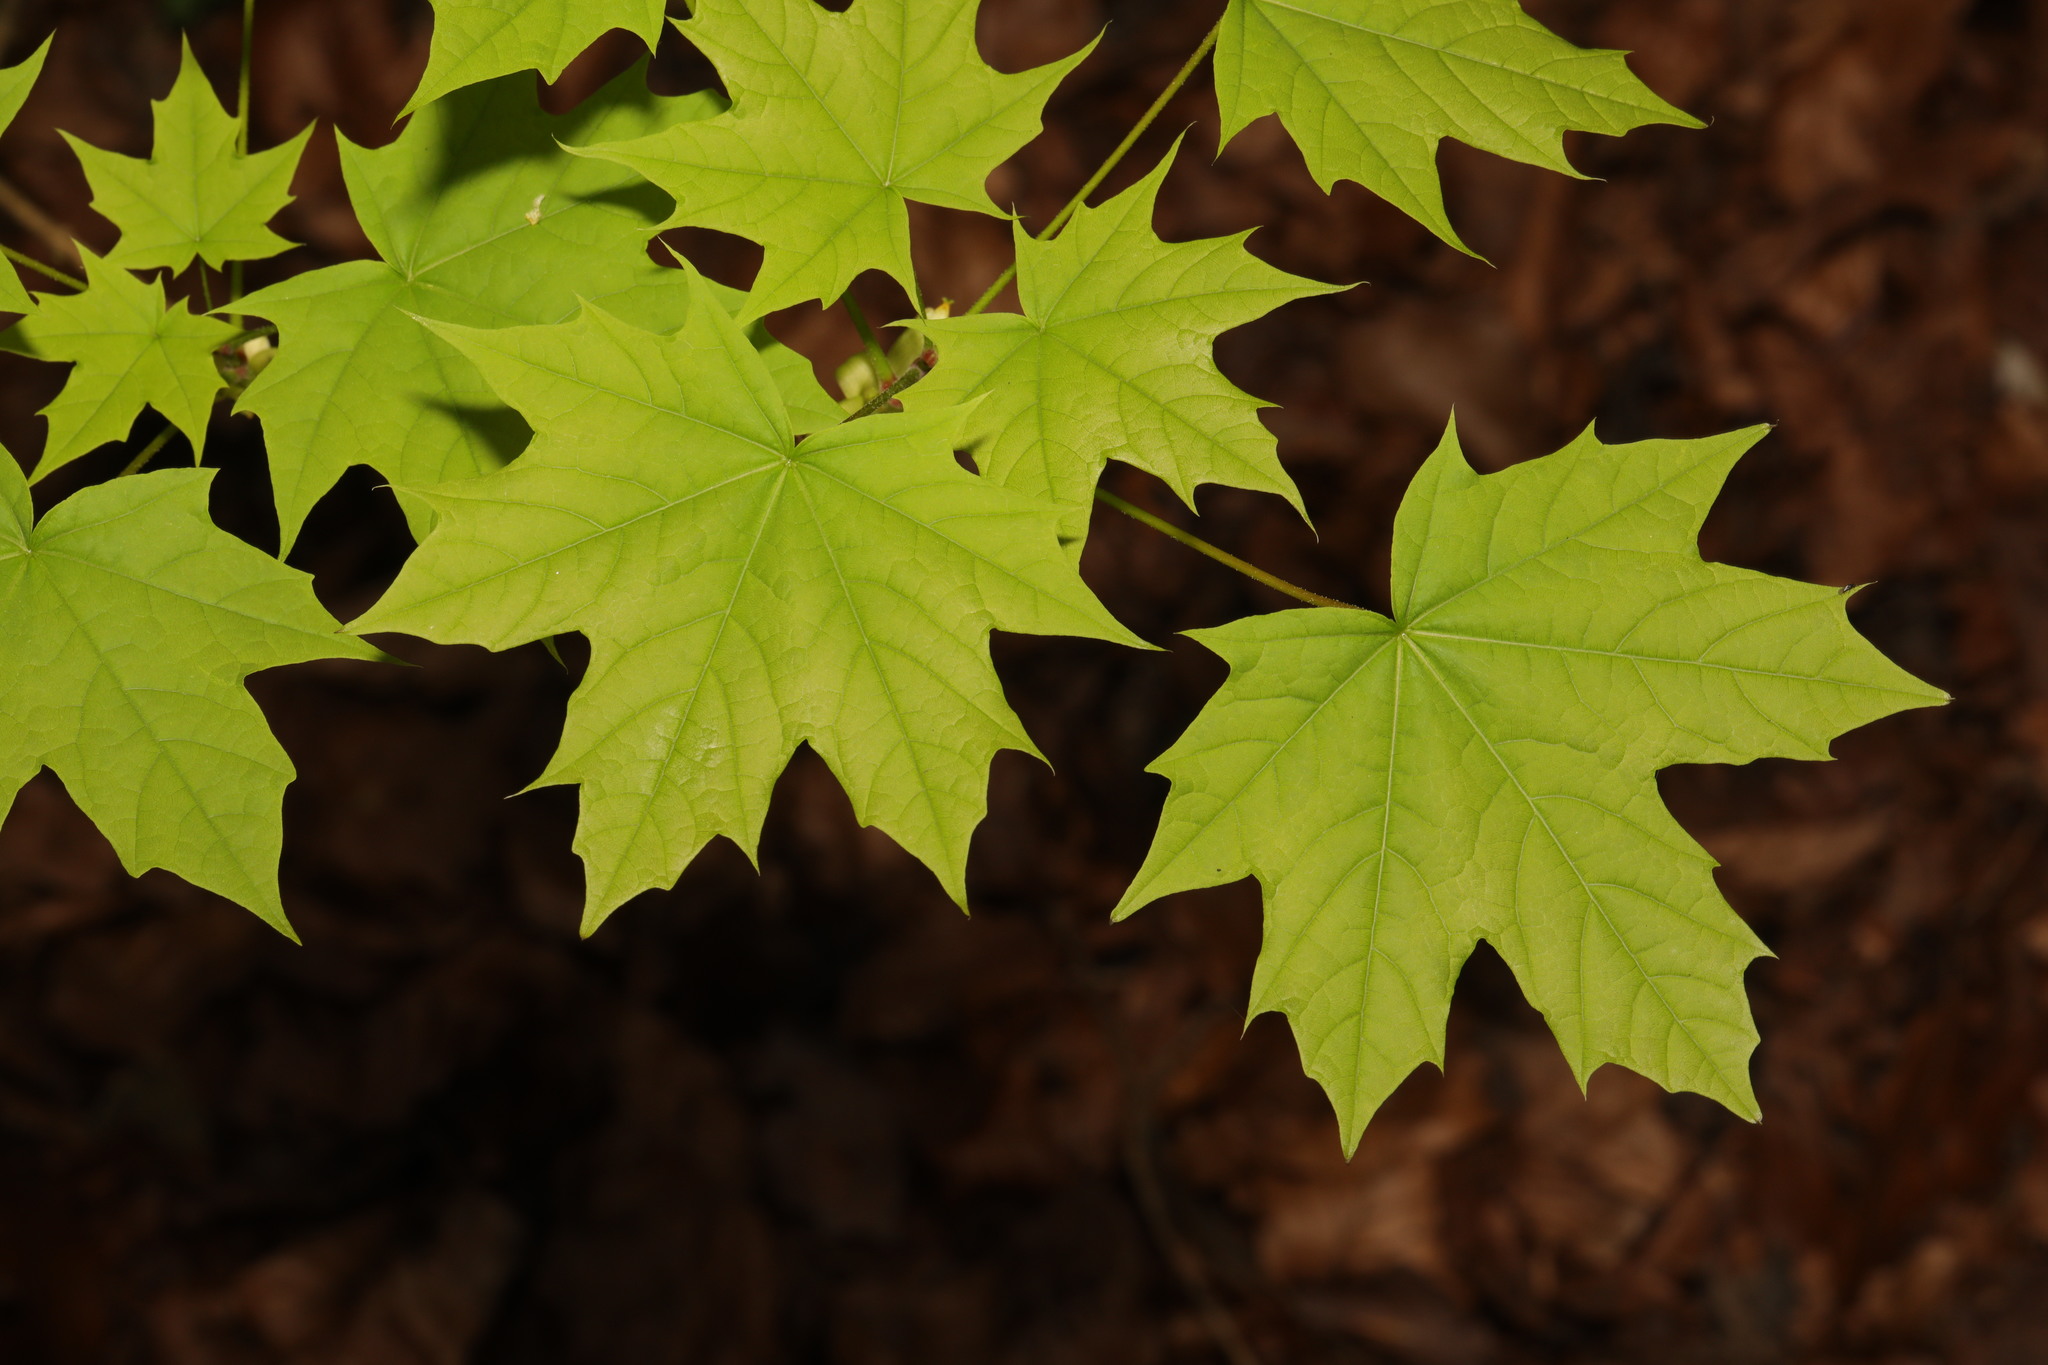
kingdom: Plantae
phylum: Tracheophyta
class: Magnoliopsida
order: Sapindales
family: Sapindaceae
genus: Acer
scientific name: Acer platanoides
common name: Norway maple
